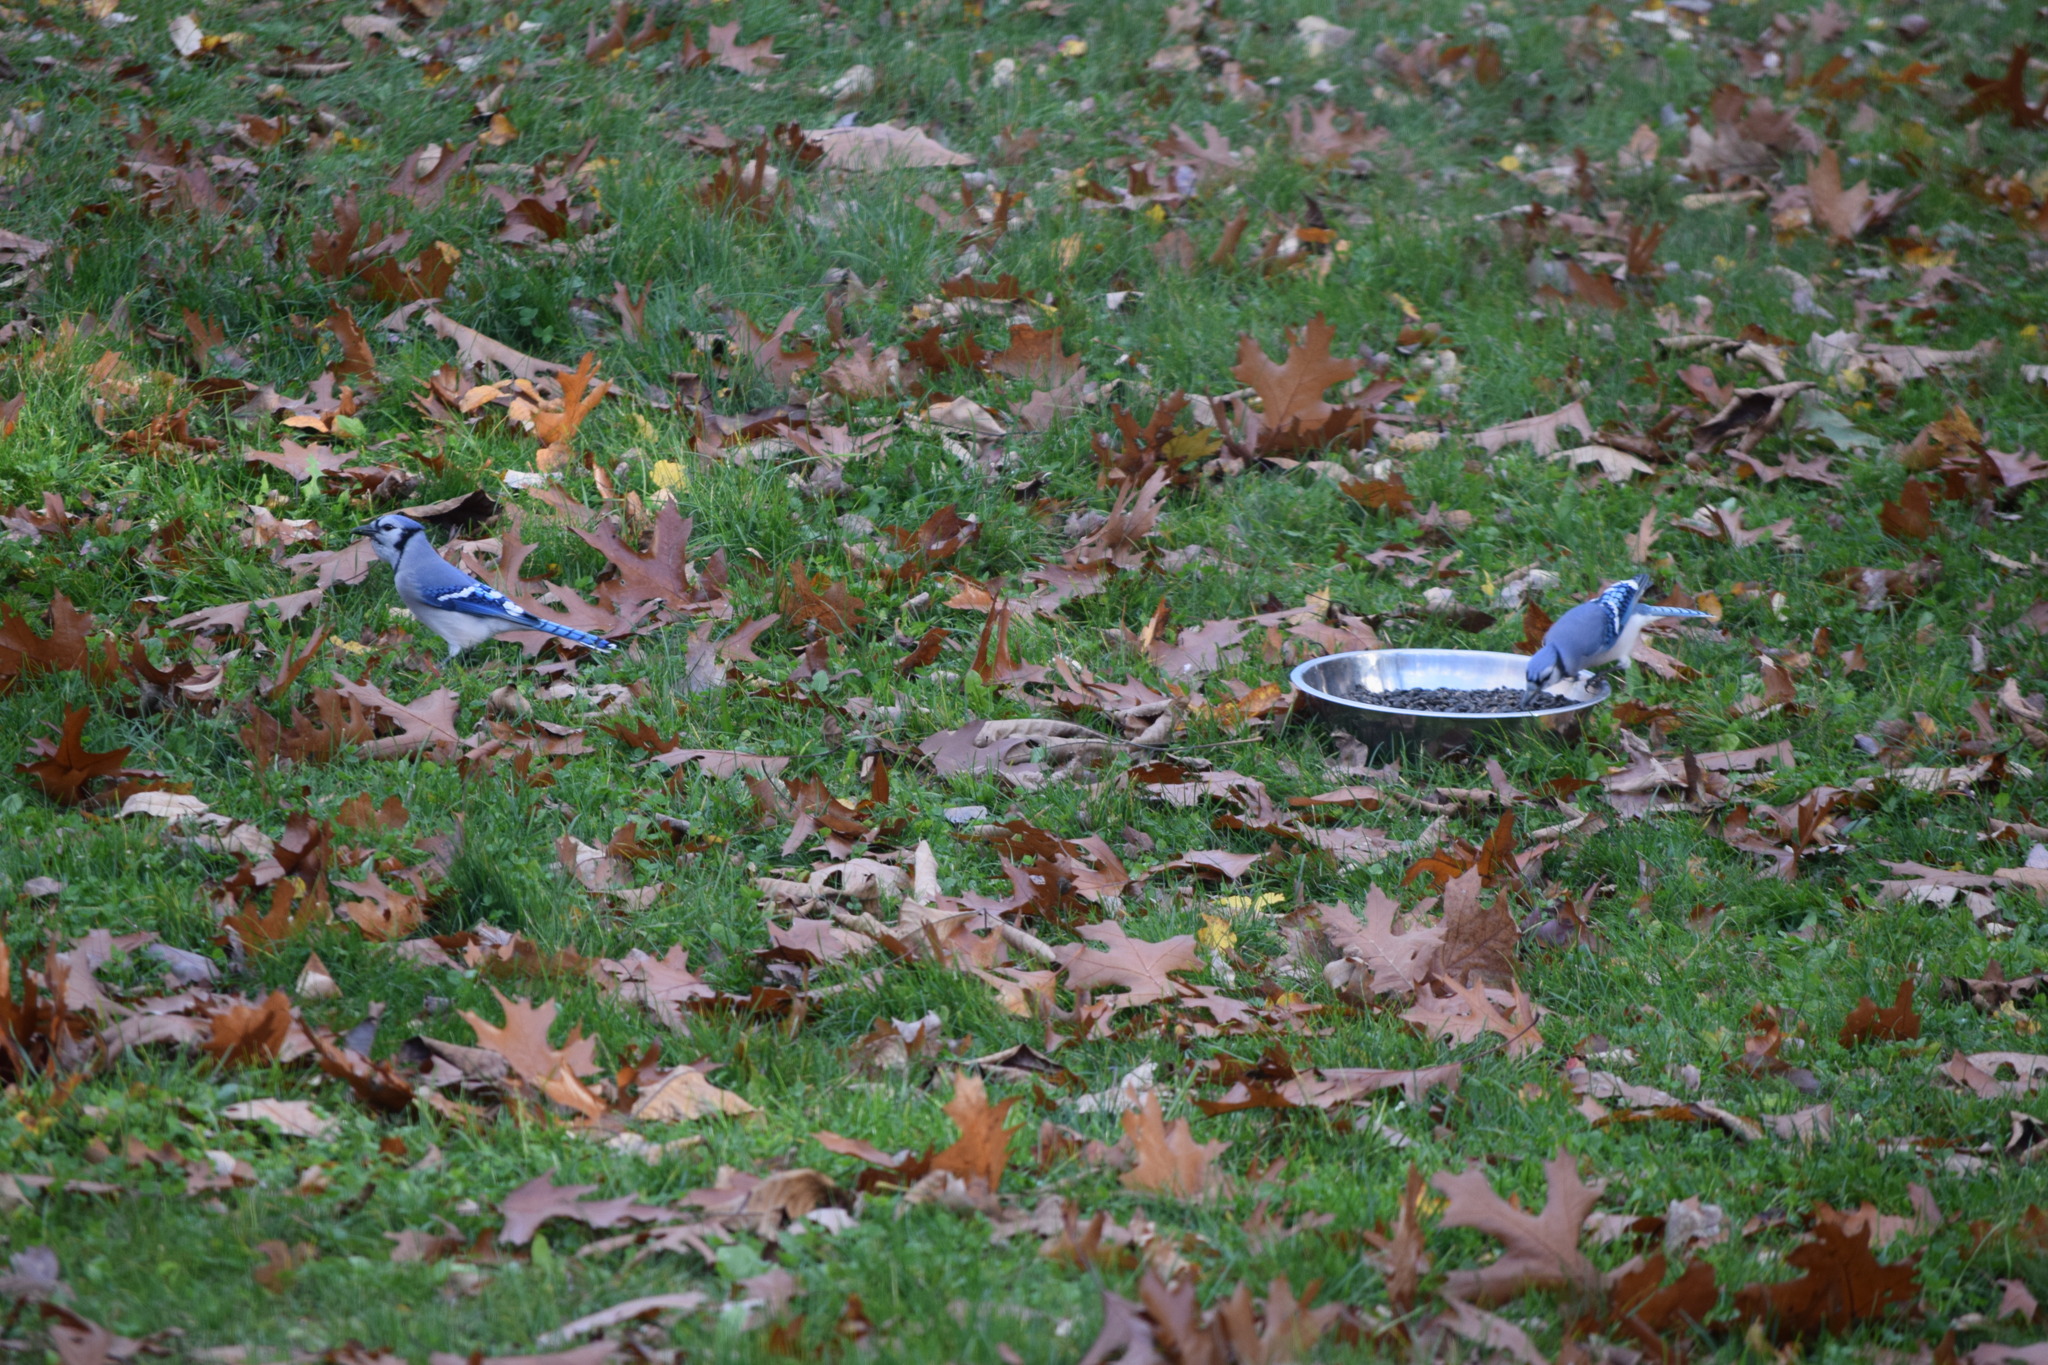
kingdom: Animalia
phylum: Chordata
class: Aves
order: Passeriformes
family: Corvidae
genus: Cyanocitta
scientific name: Cyanocitta cristata
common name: Blue jay
